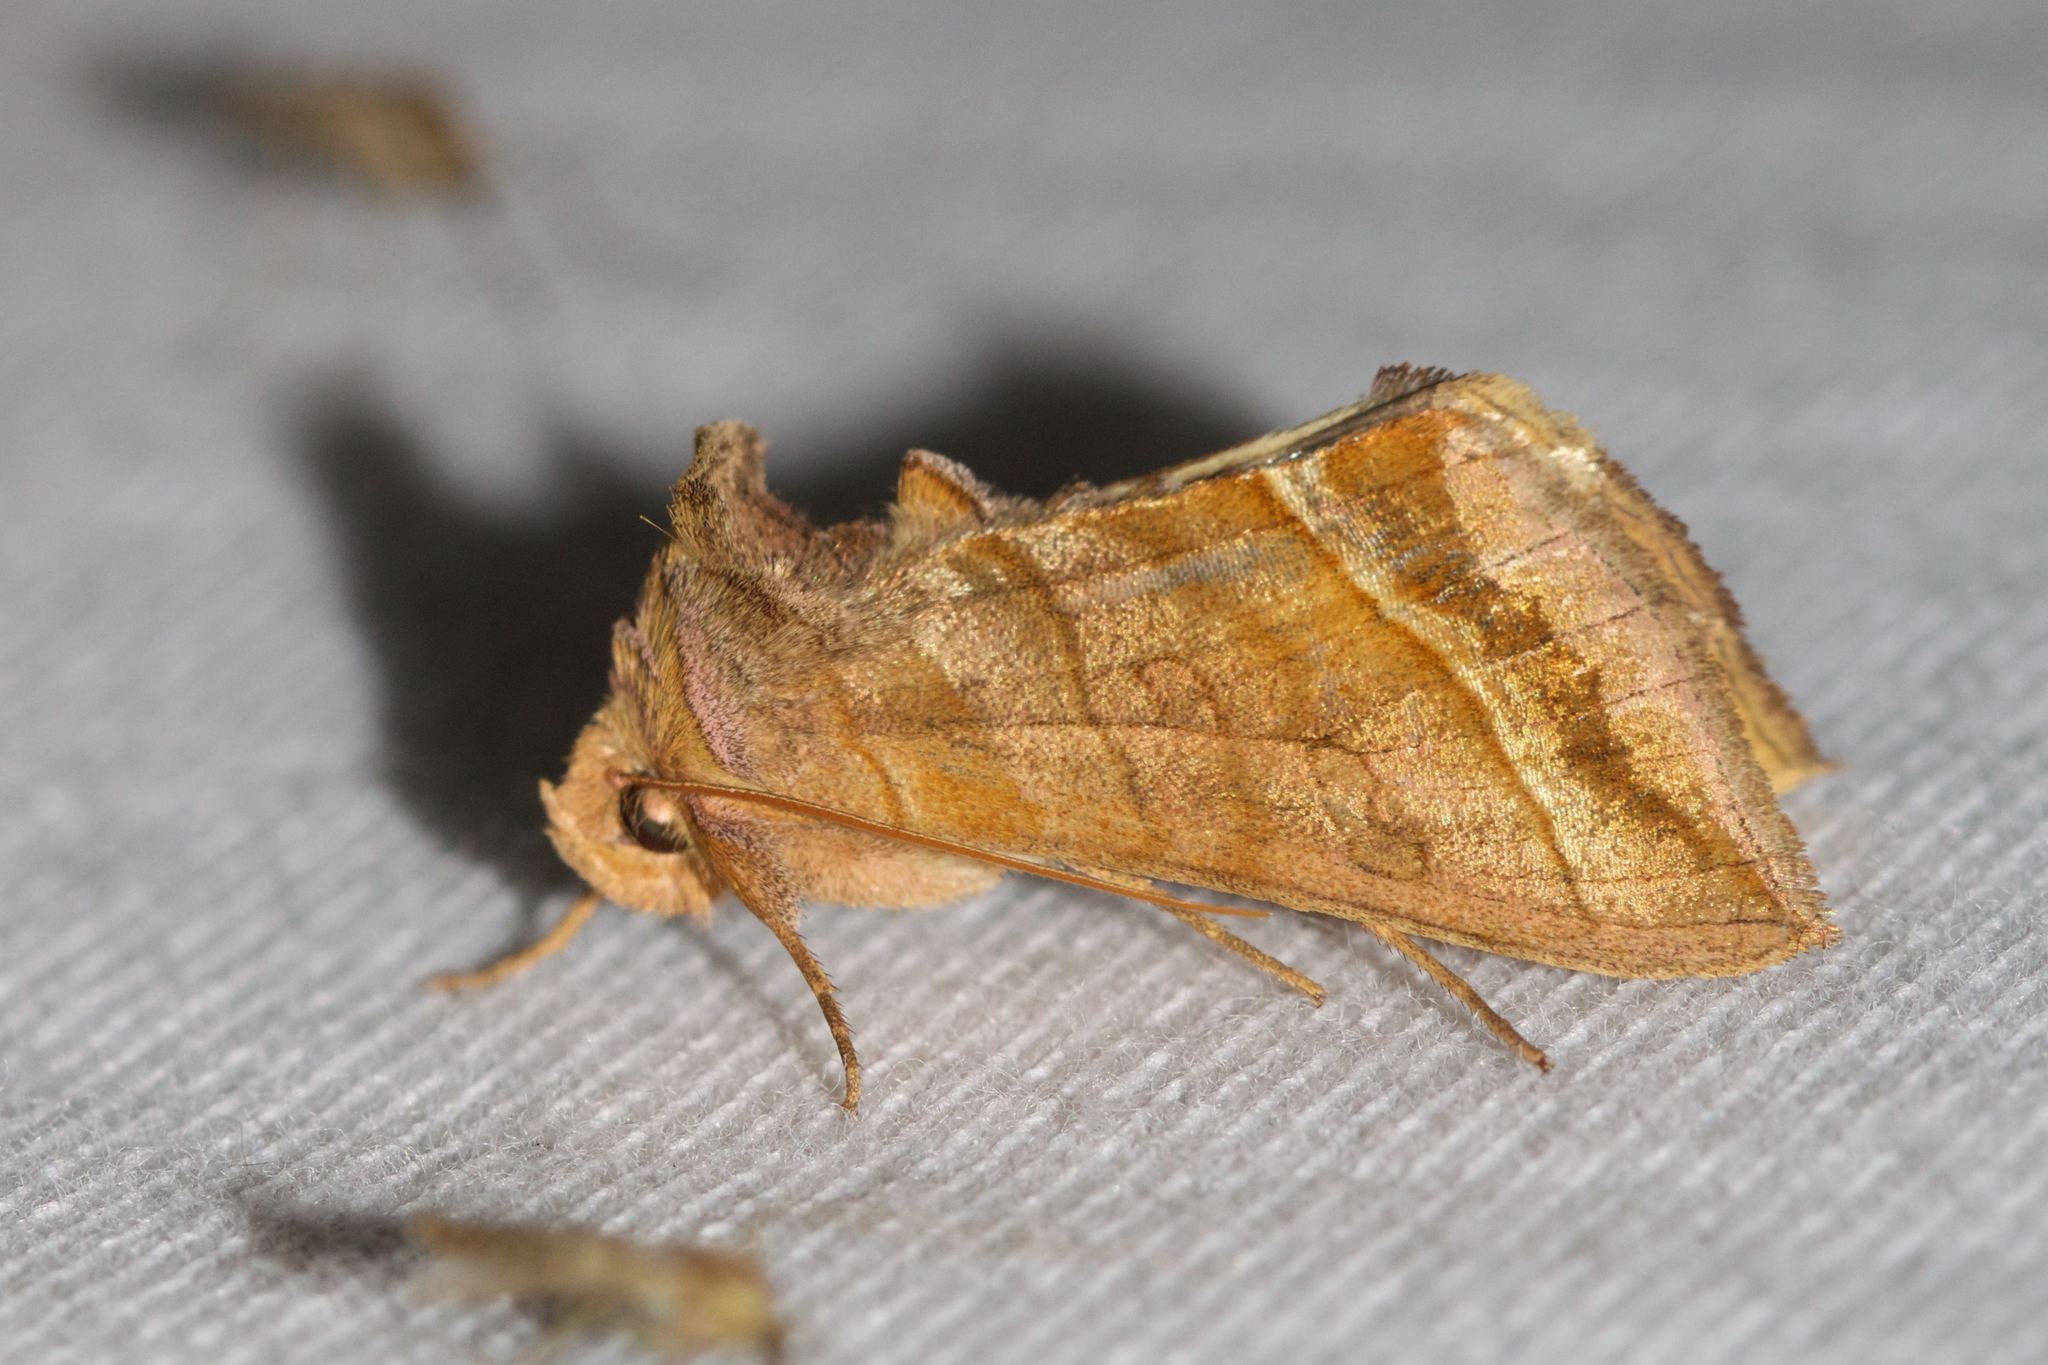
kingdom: Animalia
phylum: Arthropoda
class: Insecta
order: Lepidoptera
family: Noctuidae
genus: Diachrysia
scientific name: Diachrysia aereoides
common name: Dark-spotted looper moth
